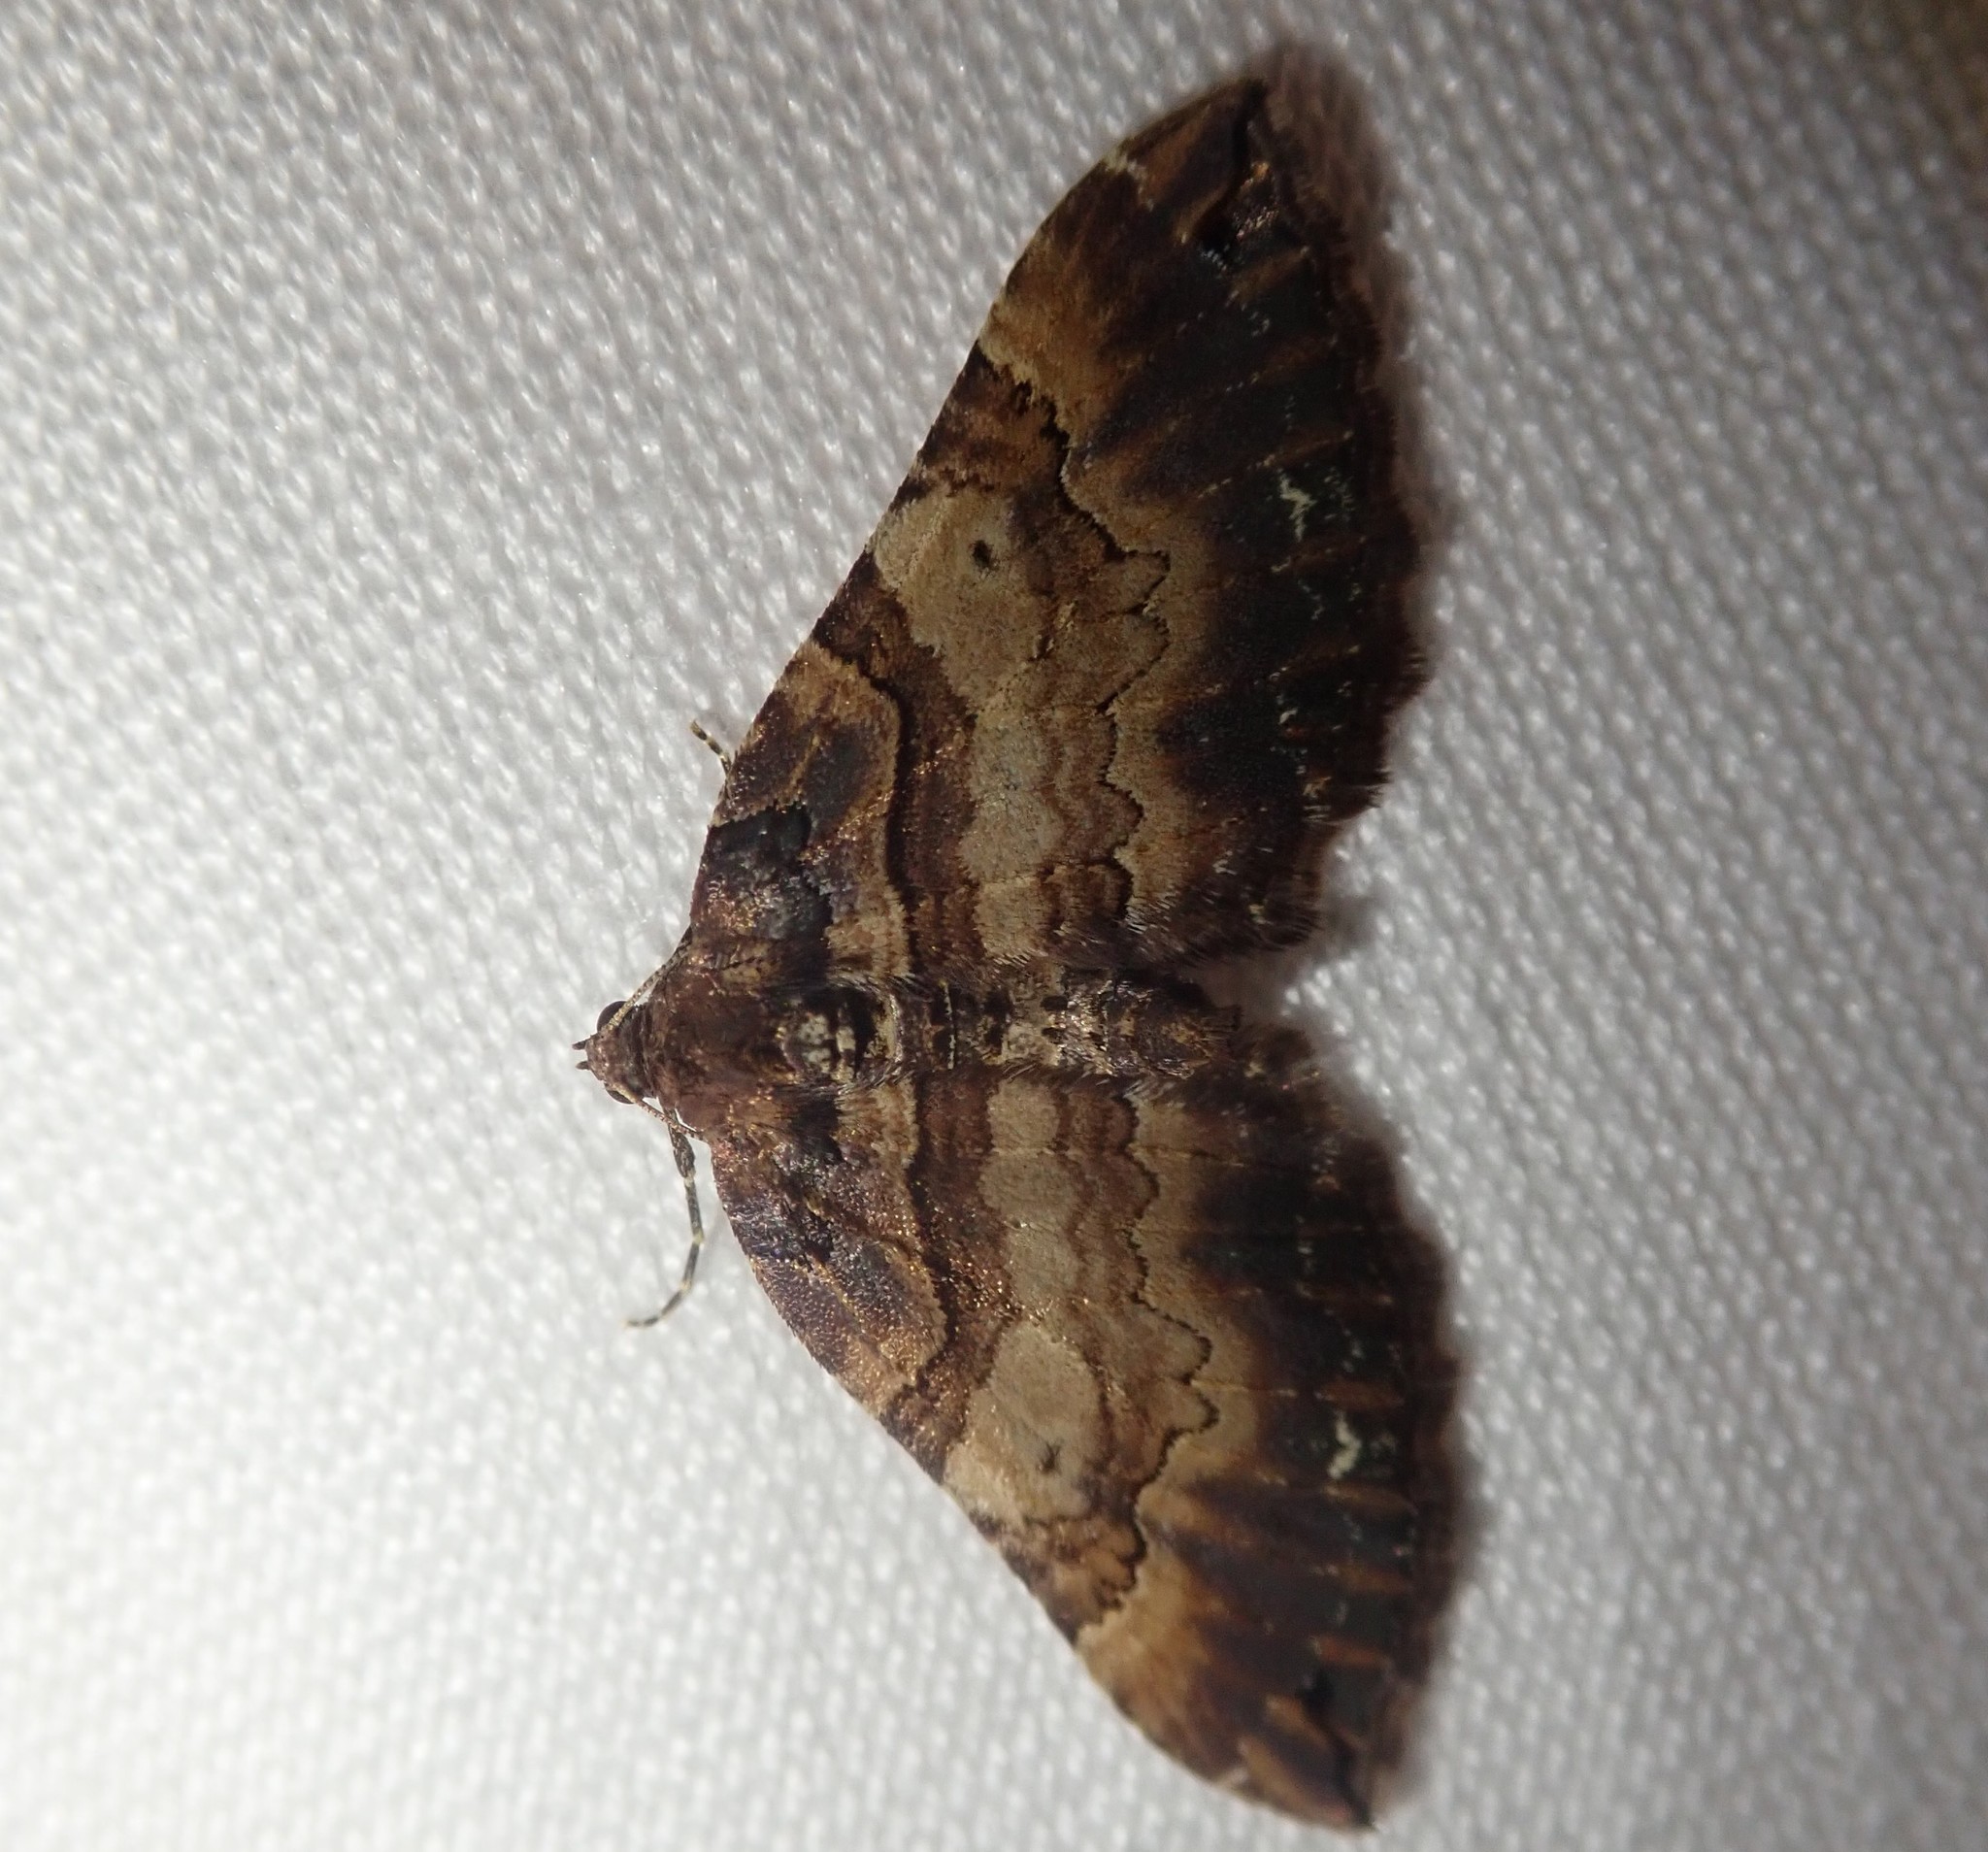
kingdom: Animalia
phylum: Arthropoda
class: Insecta
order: Lepidoptera
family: Geometridae
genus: Anticlea
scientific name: Anticlea badiata
